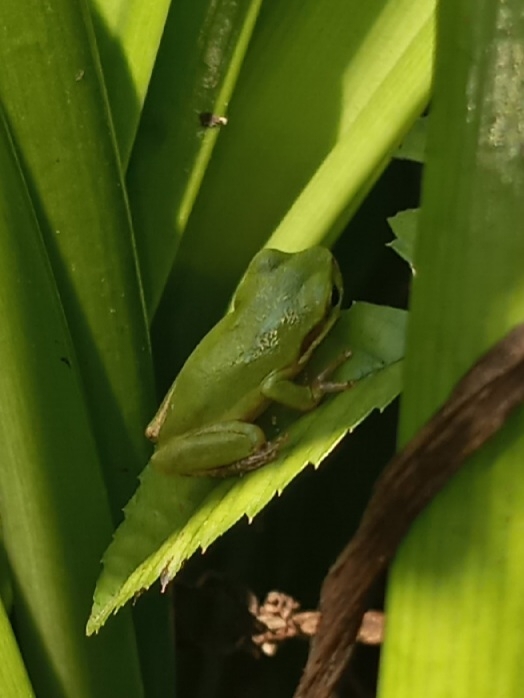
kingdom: Animalia
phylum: Chordata
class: Amphibia
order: Anura
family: Hylidae
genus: Dryophytes
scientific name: Dryophytes squirellus
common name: Squirrel treefrog
